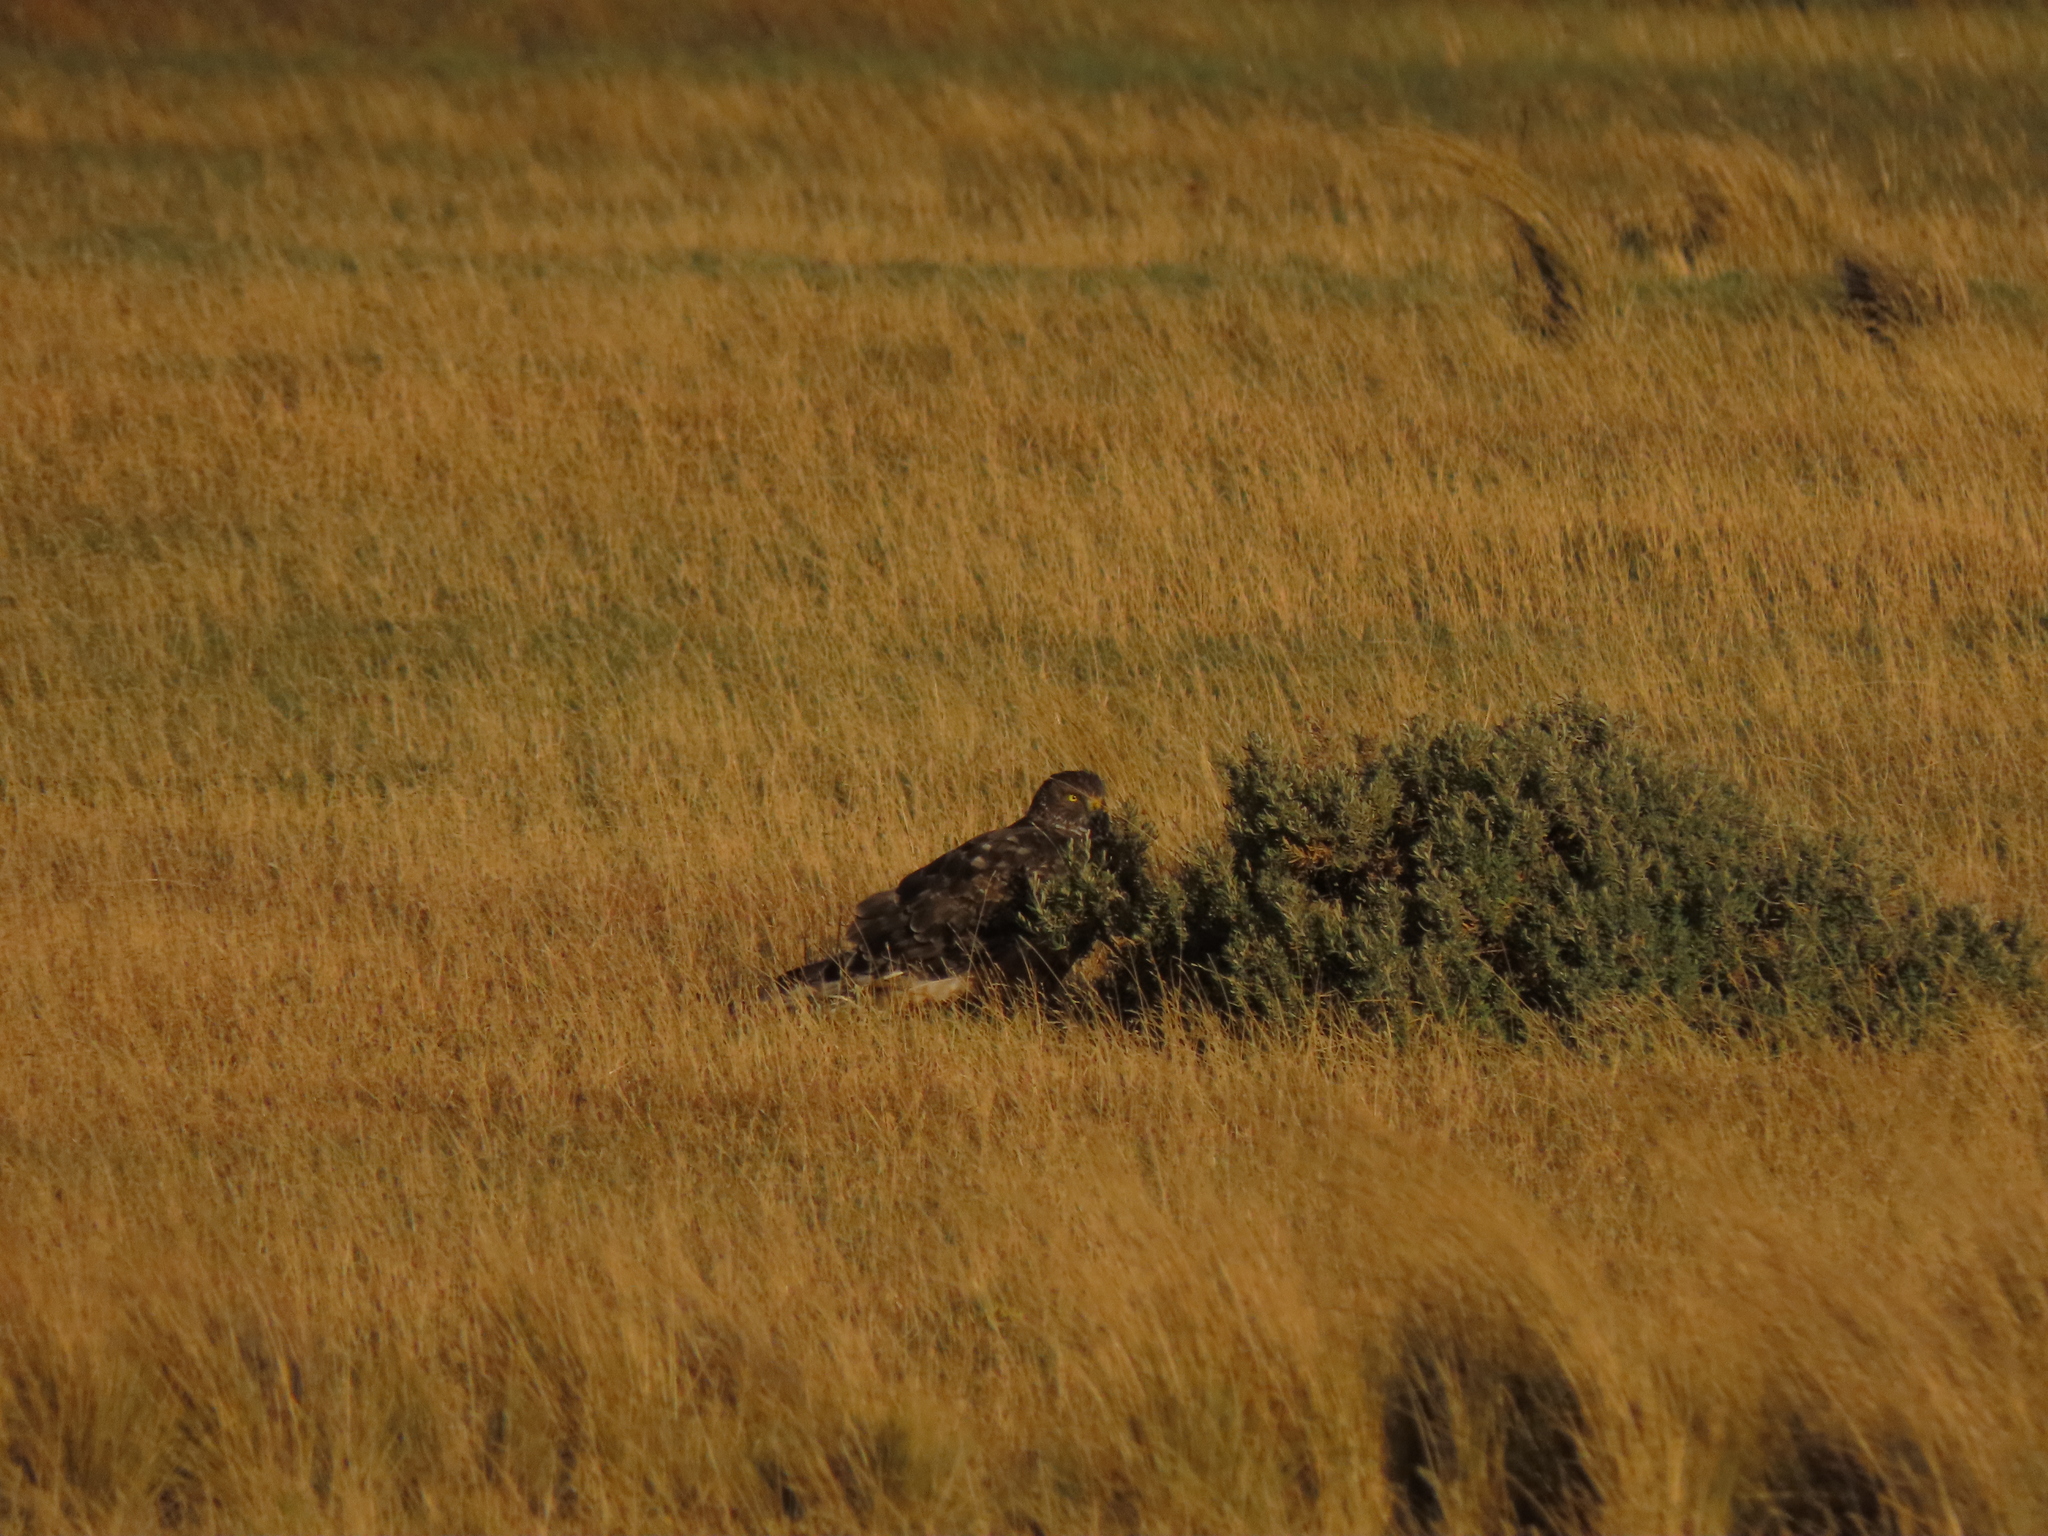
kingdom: Animalia
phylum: Chordata
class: Aves
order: Accipitriformes
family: Accipitridae
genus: Circus
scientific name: Circus cinereus
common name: Cinereous harrier
